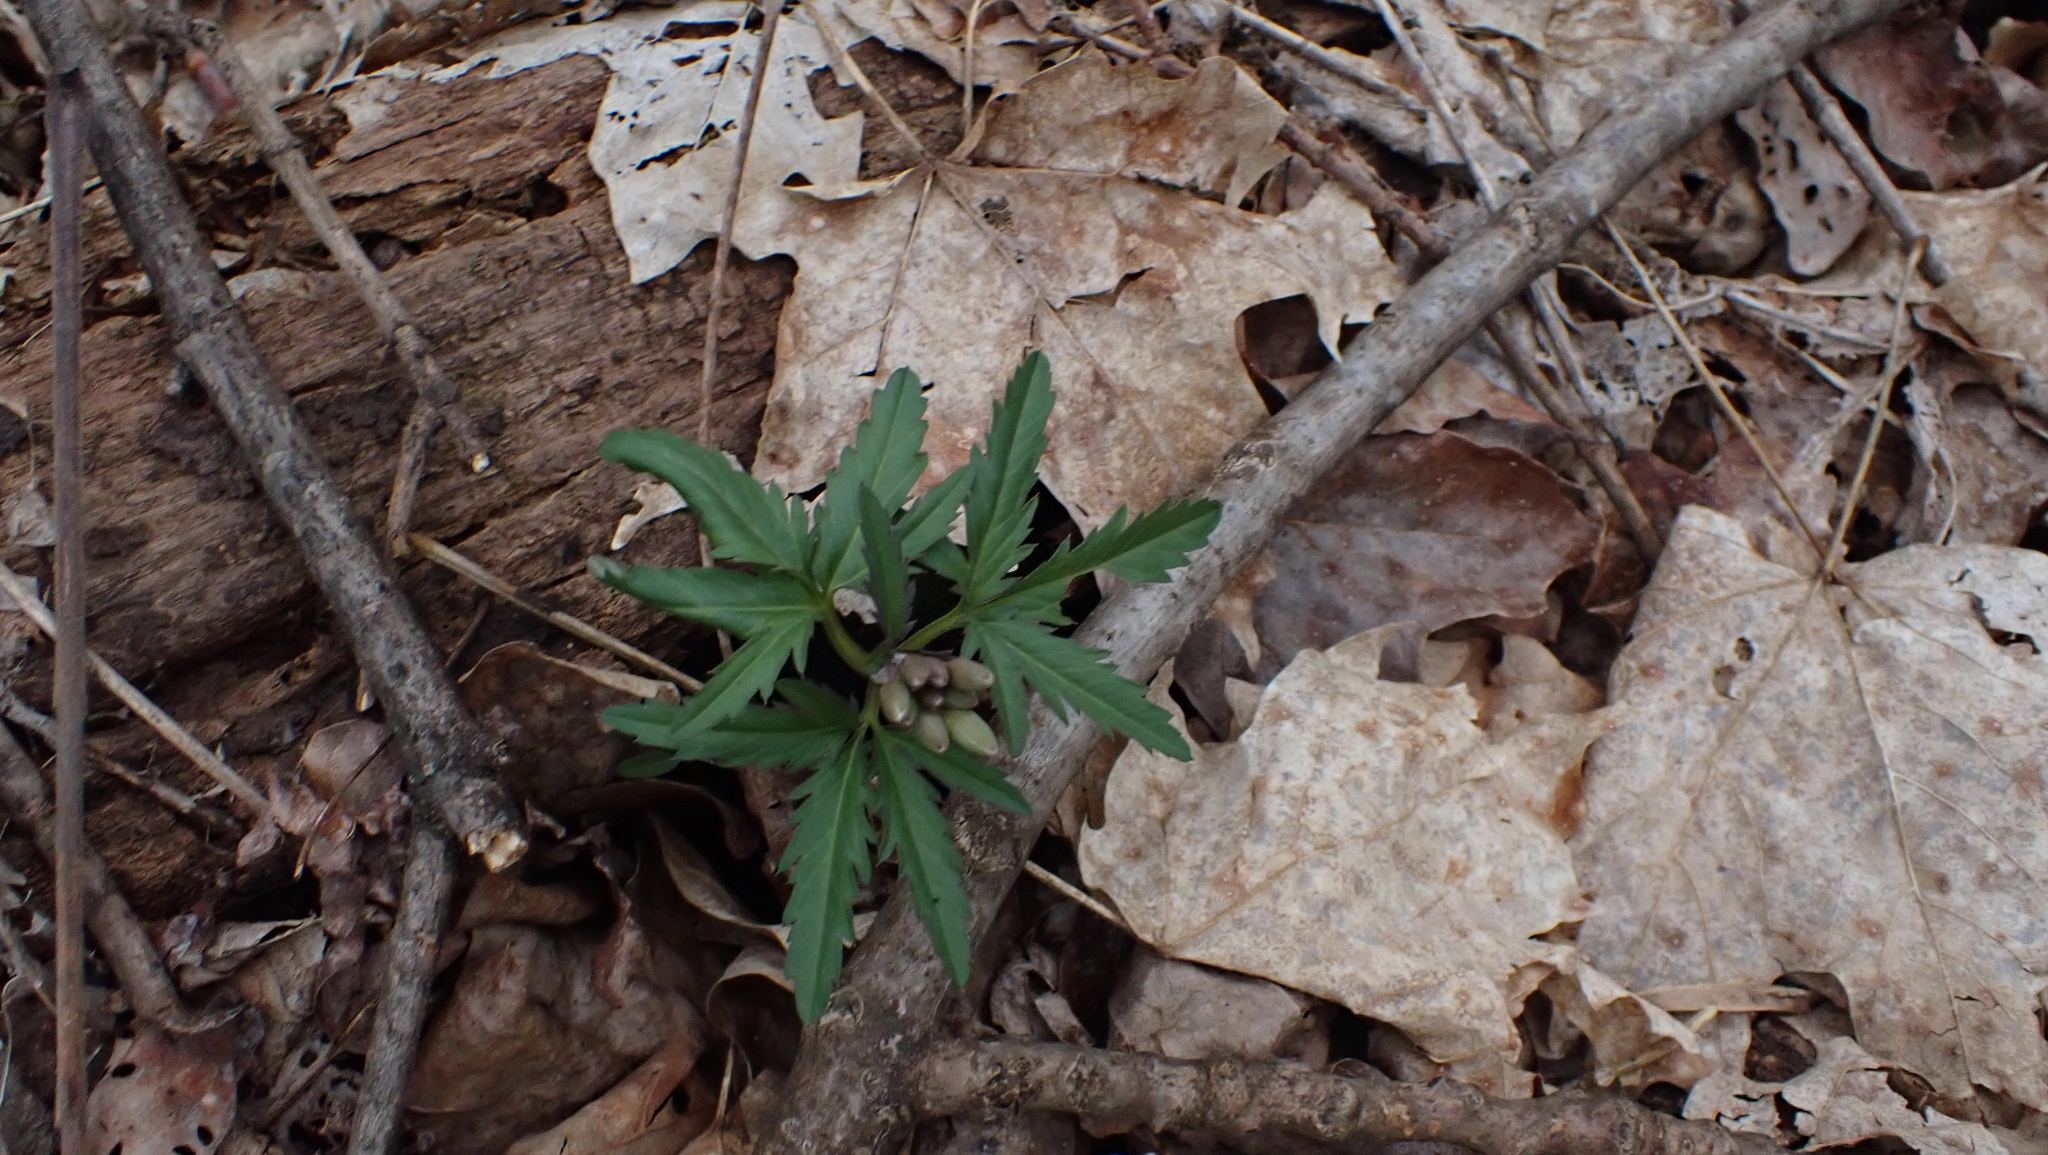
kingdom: Plantae
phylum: Tracheophyta
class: Magnoliopsida
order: Brassicales
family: Brassicaceae
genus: Cardamine
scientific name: Cardamine concatenata
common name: Cut-leaf toothcup
